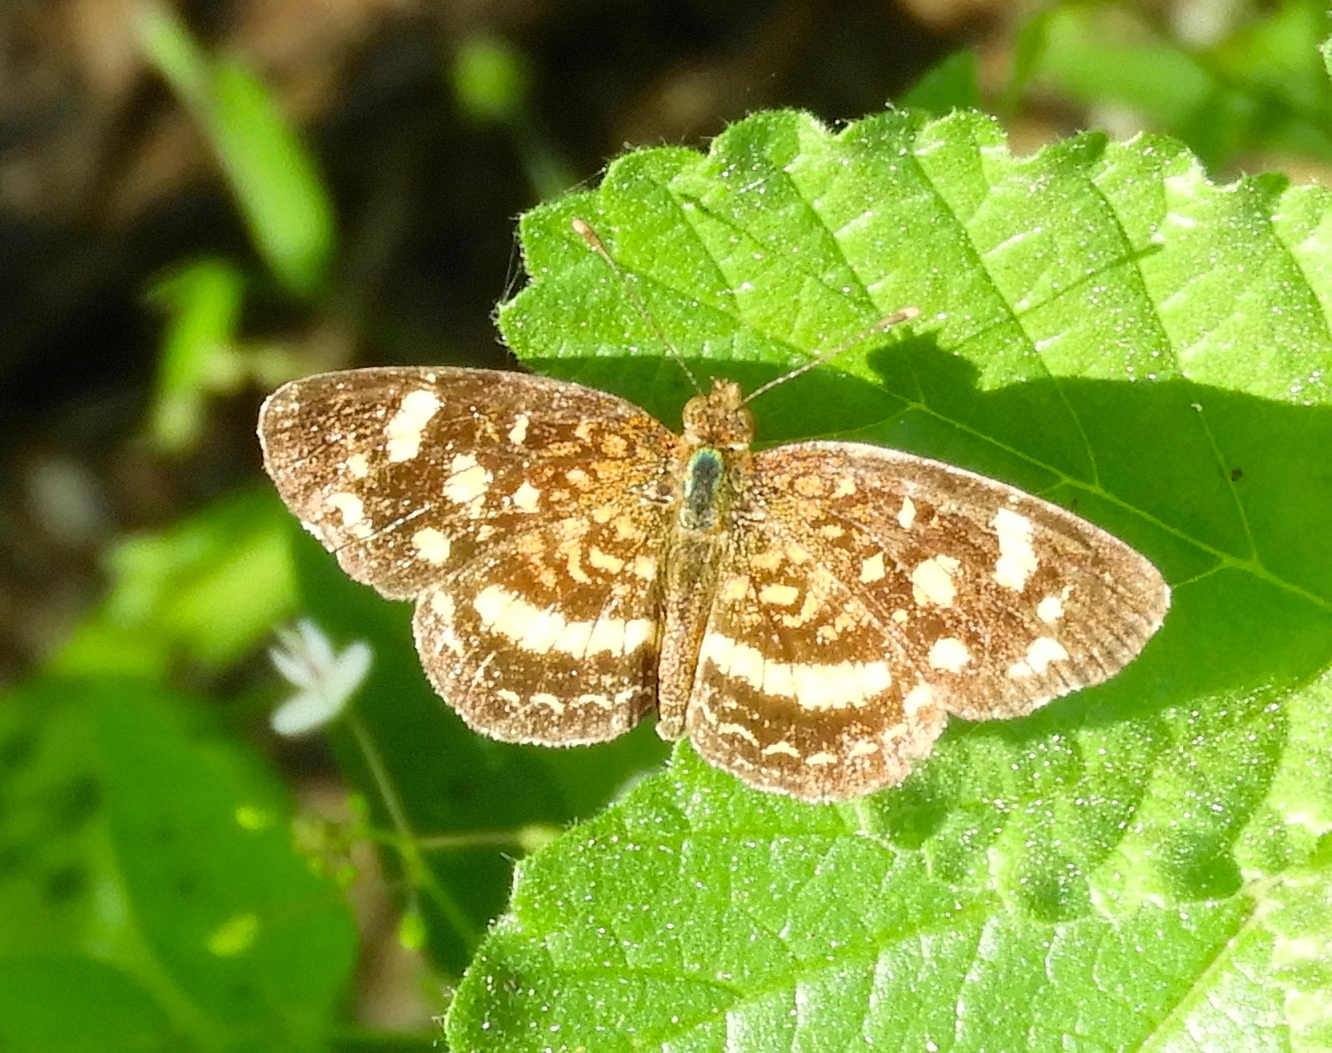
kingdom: Animalia
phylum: Arthropoda
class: Insecta
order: Lepidoptera
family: Nymphalidae
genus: Anthanassa
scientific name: Anthanassa
